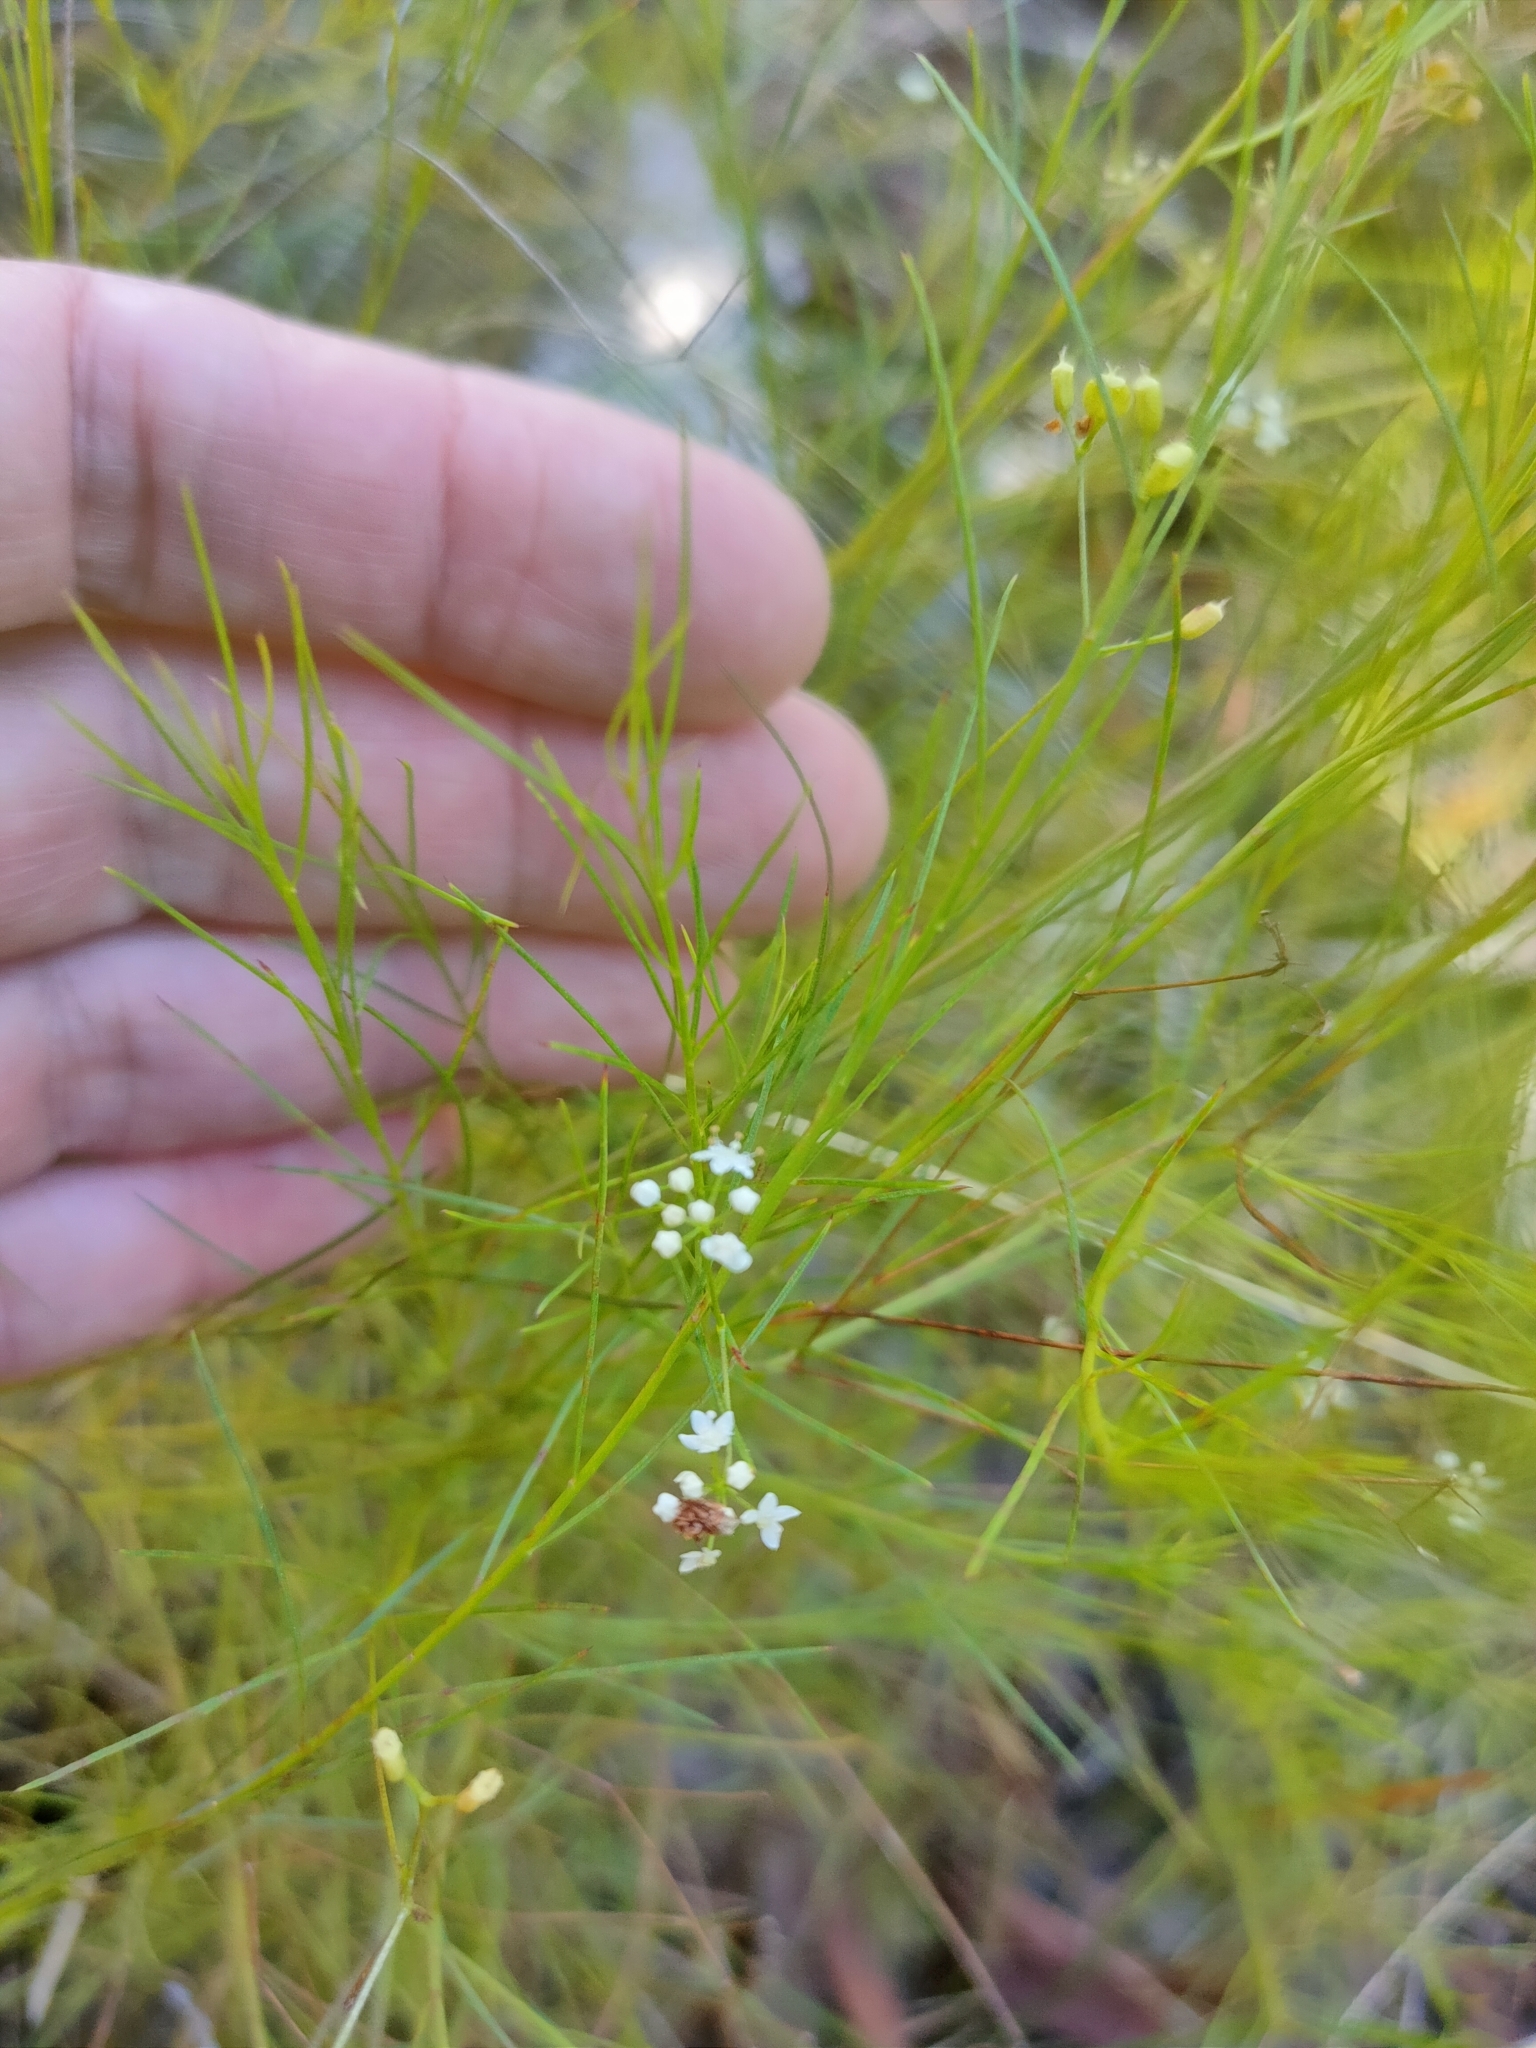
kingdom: Plantae
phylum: Tracheophyta
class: Magnoliopsida
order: Apiales
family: Apiaceae
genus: Platysace
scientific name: Platysace linearifolia
